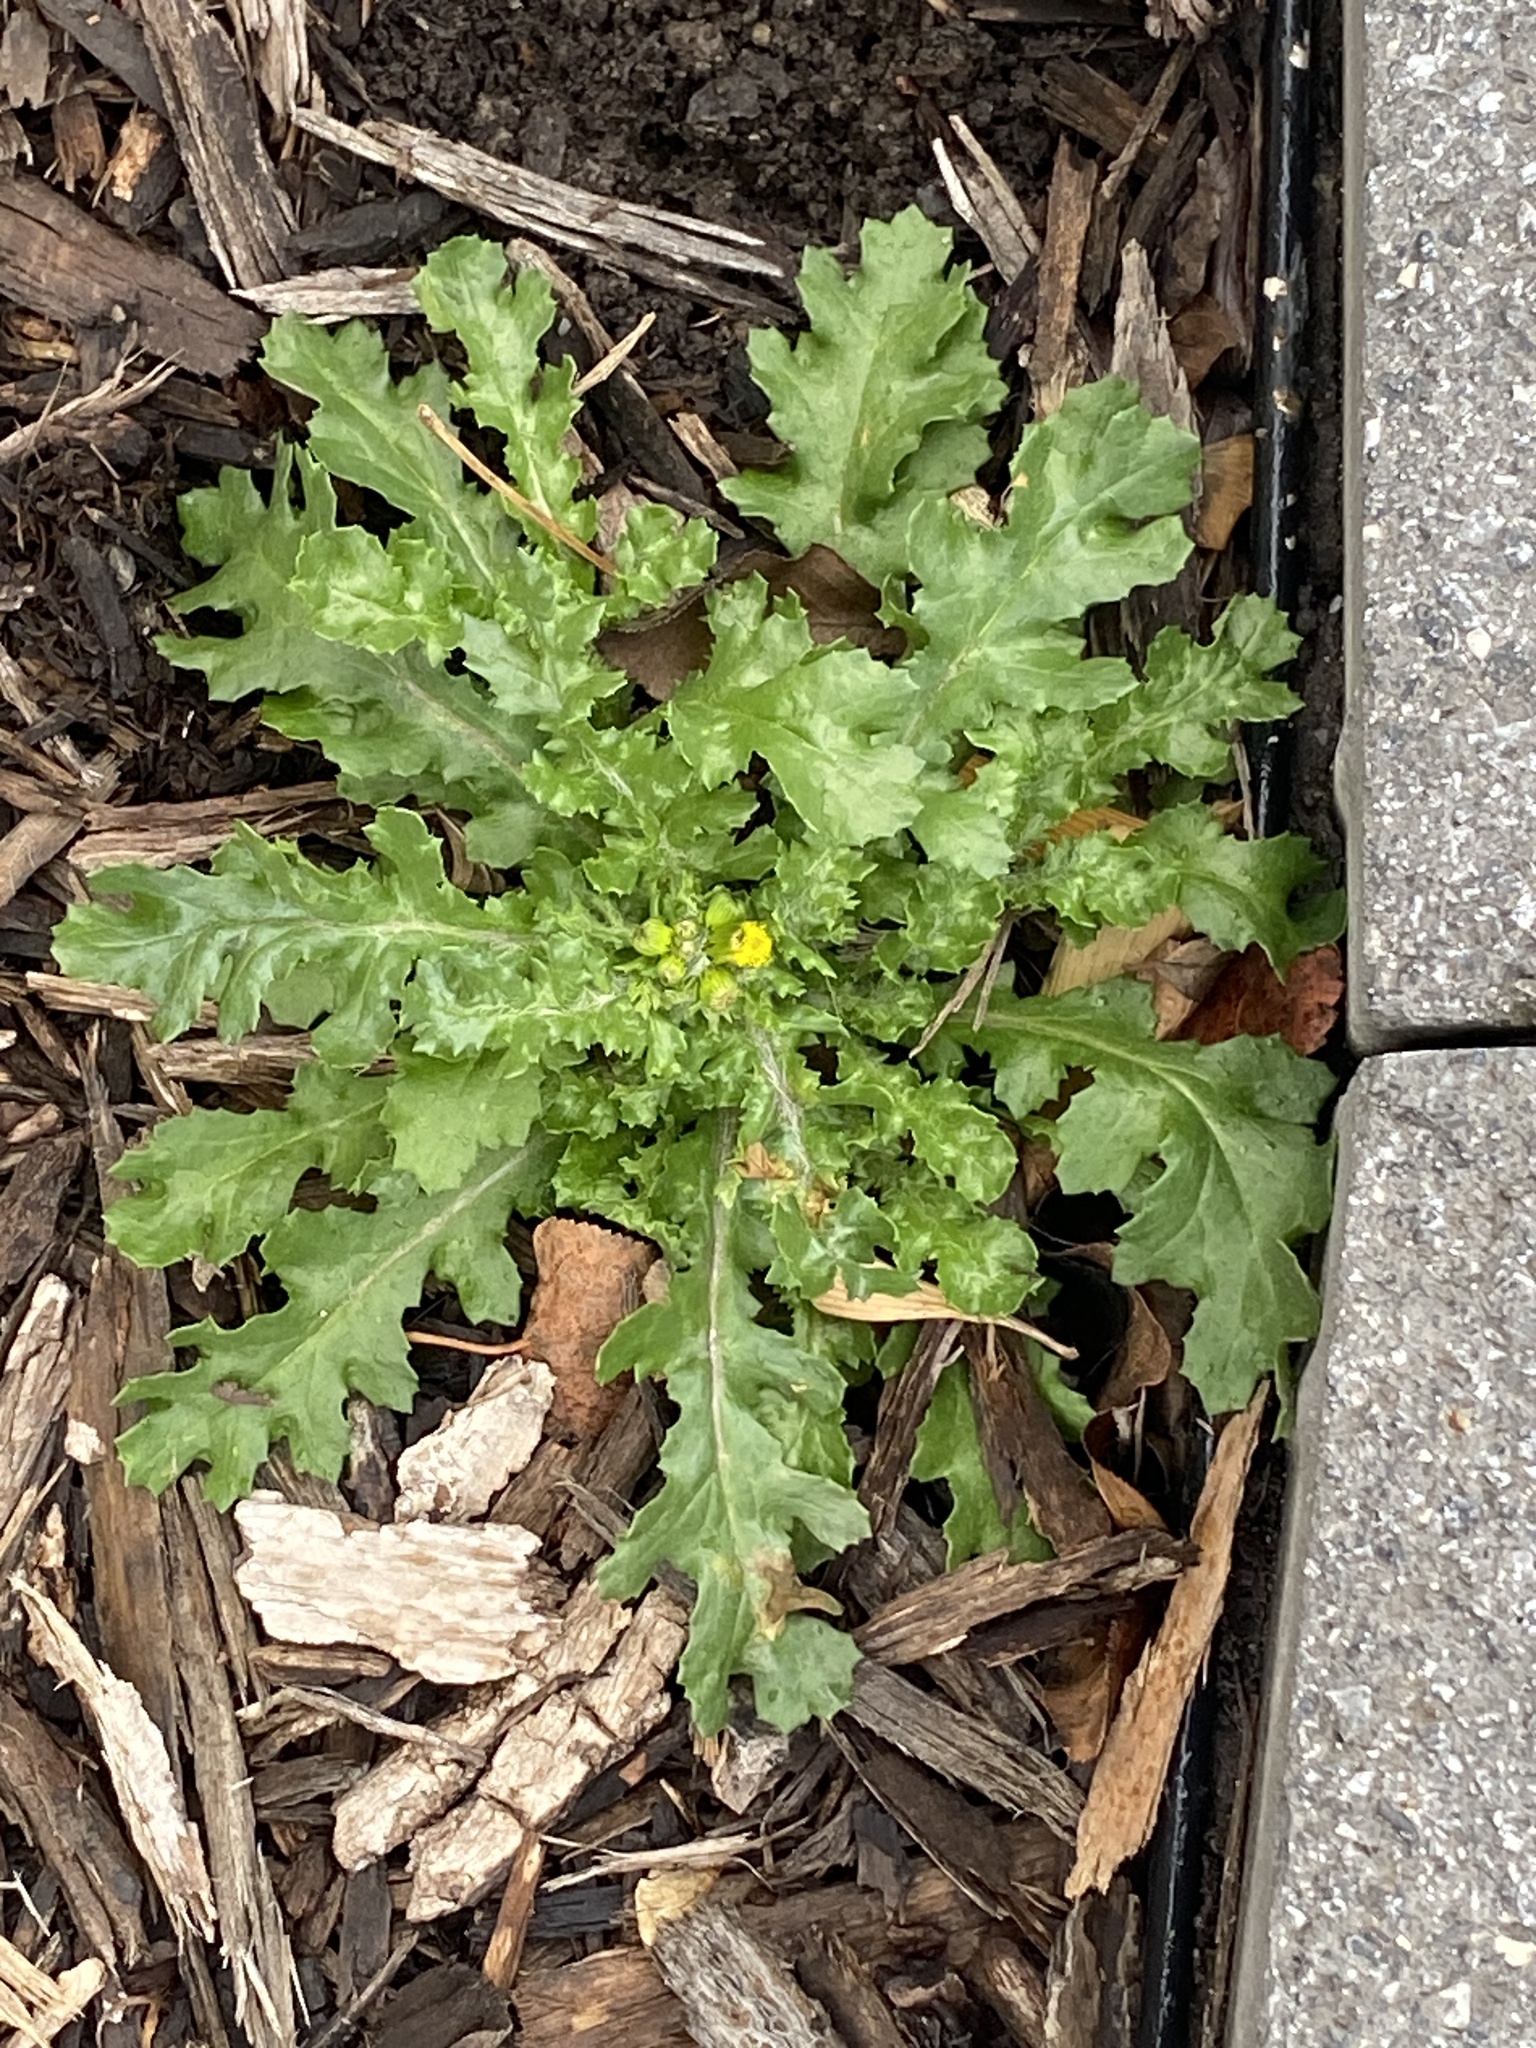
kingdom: Plantae
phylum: Tracheophyta
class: Magnoliopsida
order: Asterales
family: Asteraceae
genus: Senecio
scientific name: Senecio vulgaris
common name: Old-man-in-the-spring
